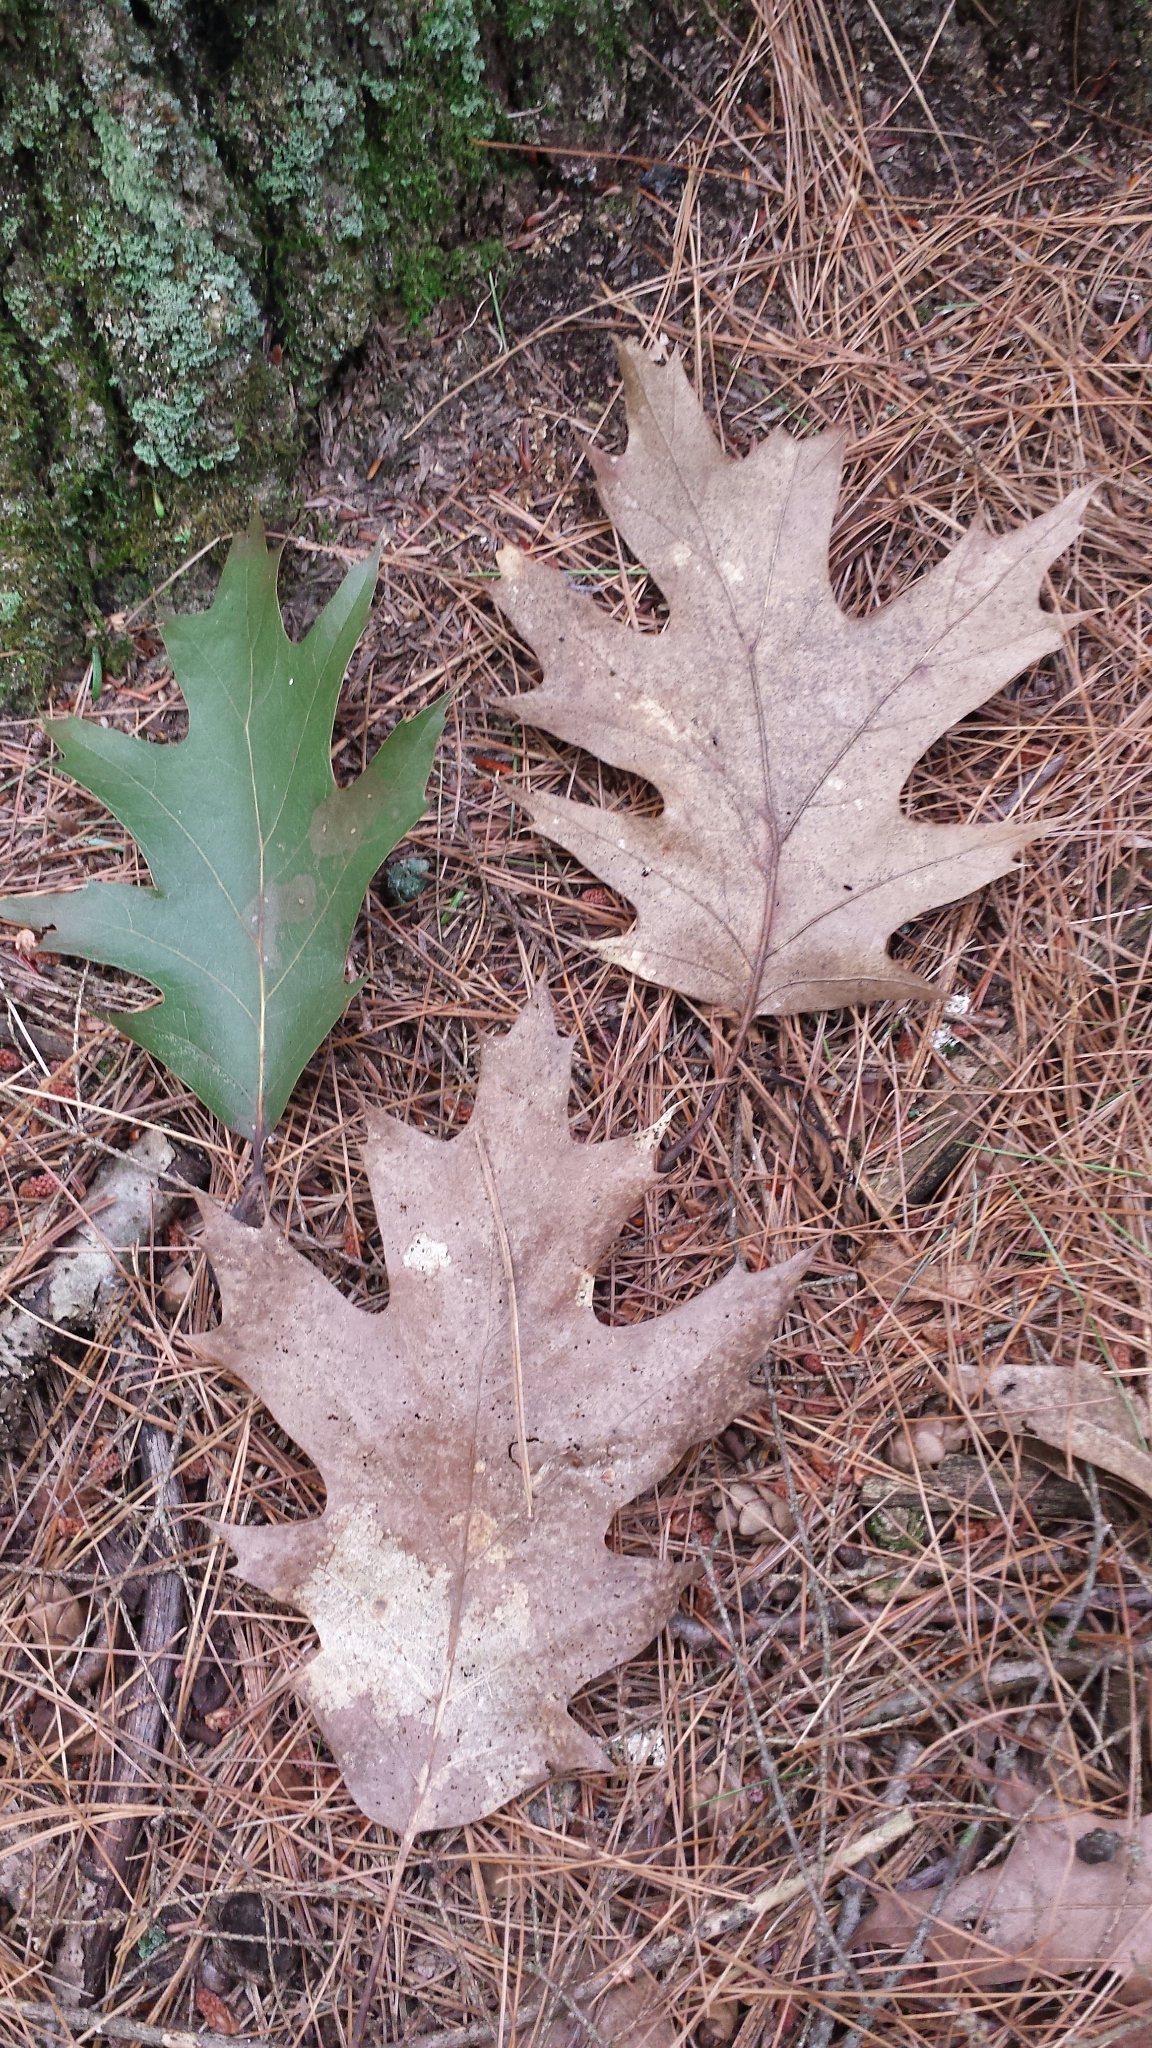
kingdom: Plantae
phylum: Tracheophyta
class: Magnoliopsida
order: Fagales
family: Fagaceae
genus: Quercus
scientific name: Quercus rubra
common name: Red oak
